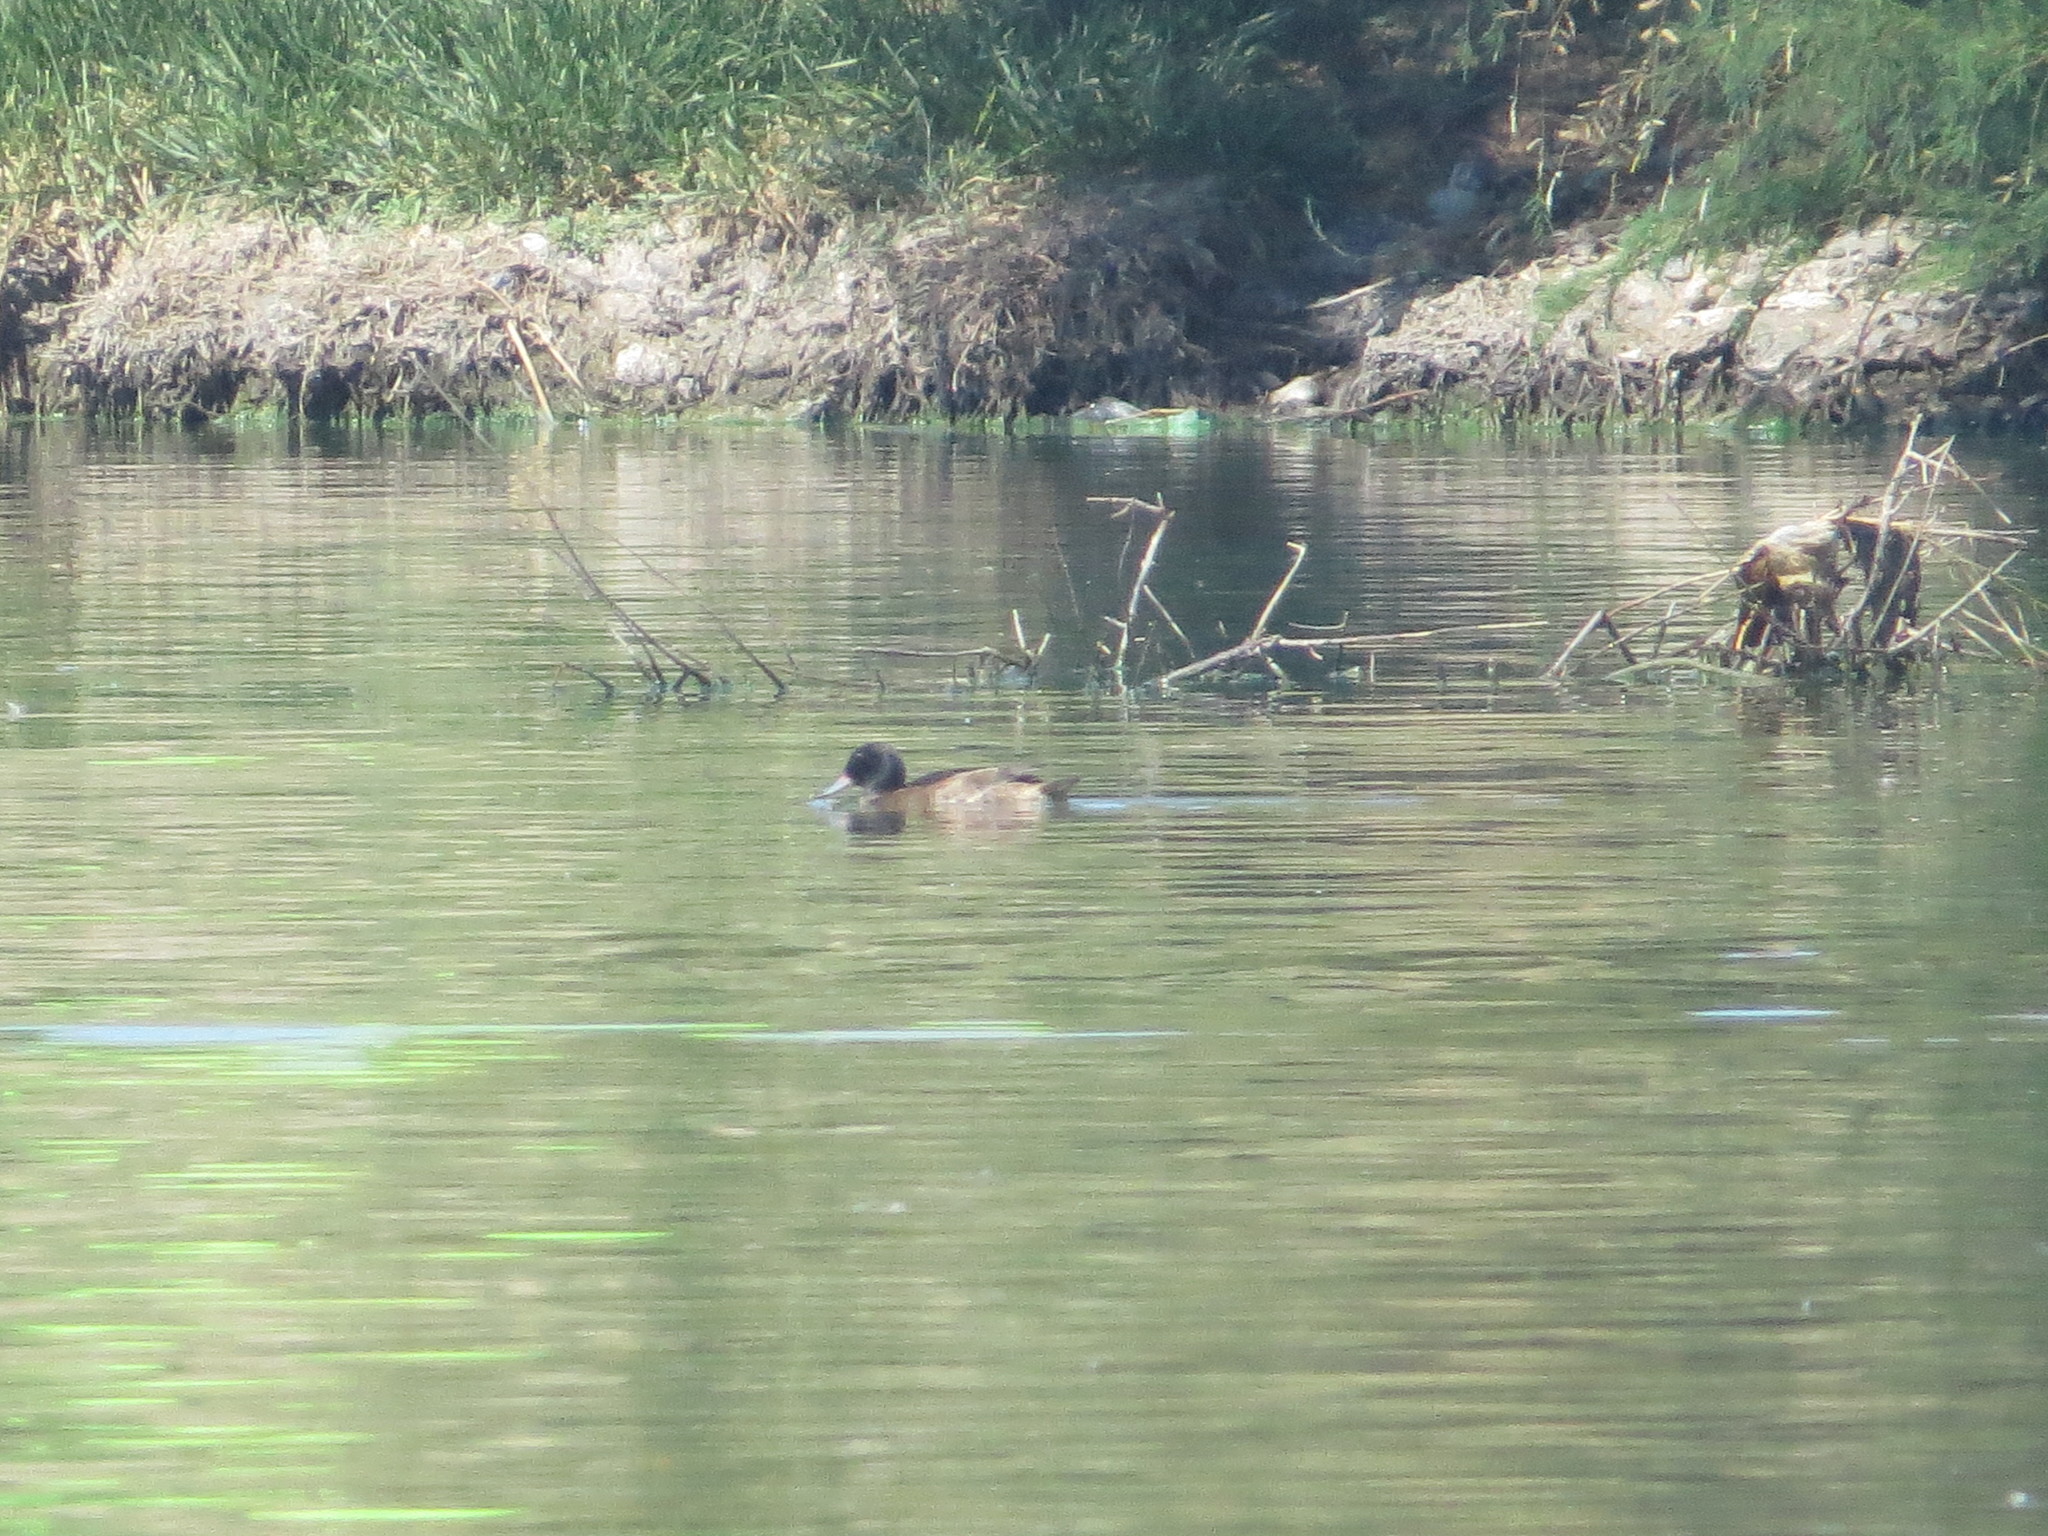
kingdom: Animalia
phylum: Chordata
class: Aves
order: Anseriformes
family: Anatidae
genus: Heteronetta
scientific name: Heteronetta atricapilla
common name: Black-headed duck
